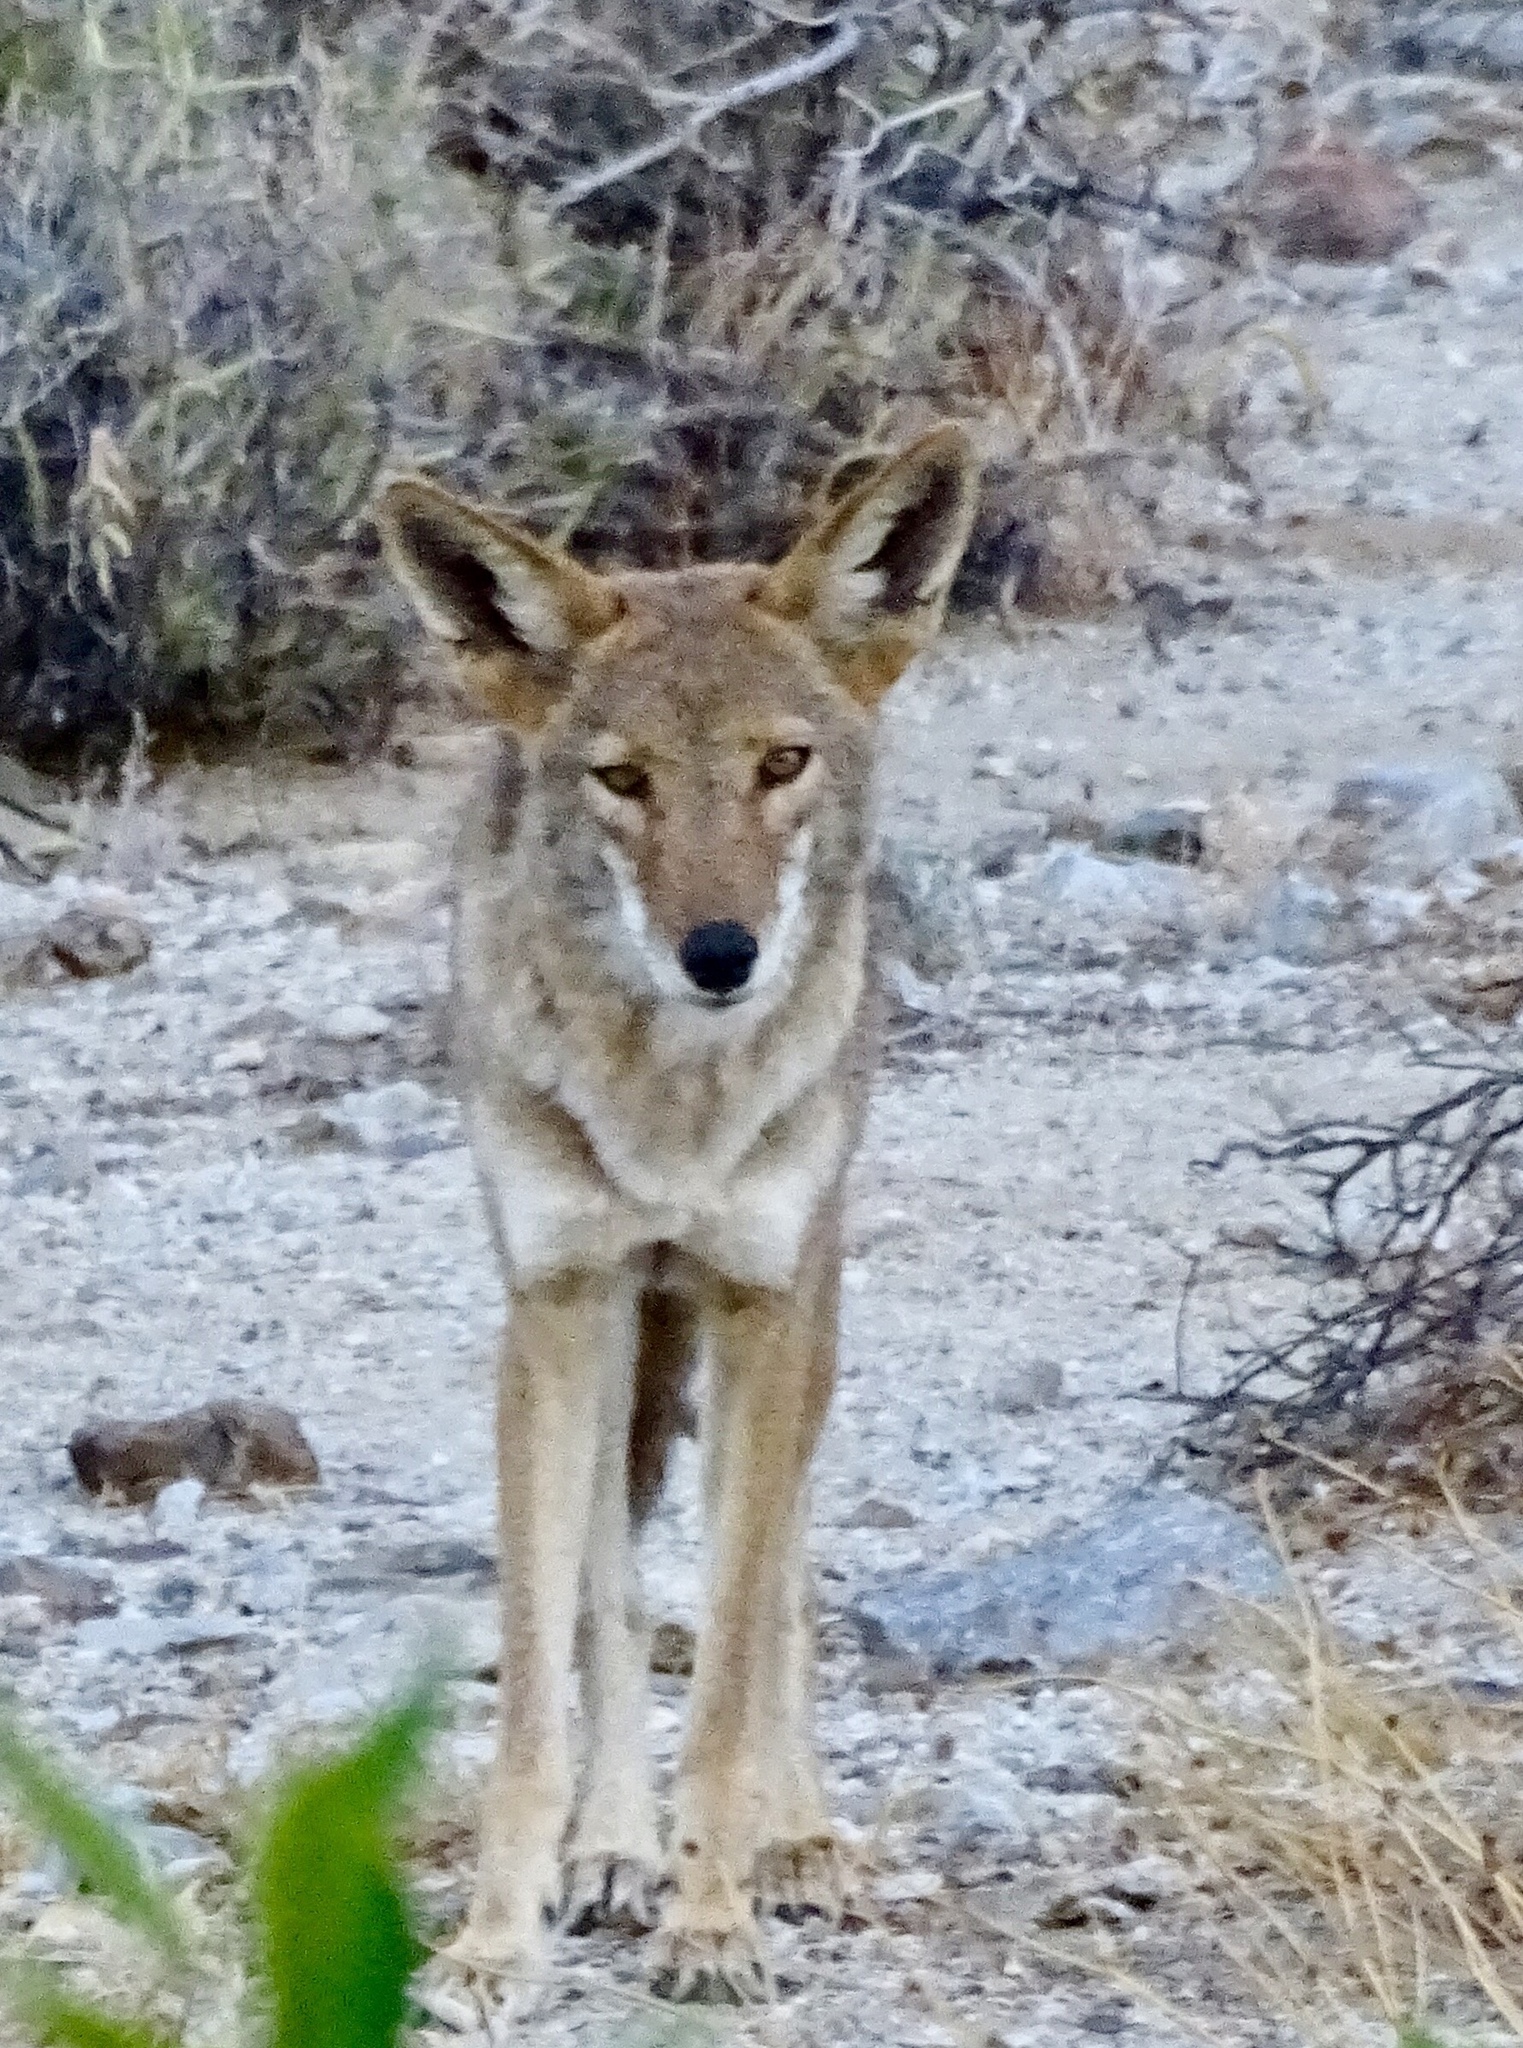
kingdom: Animalia
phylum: Chordata
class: Mammalia
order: Carnivora
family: Canidae
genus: Canis
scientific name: Canis latrans
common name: Coyote
